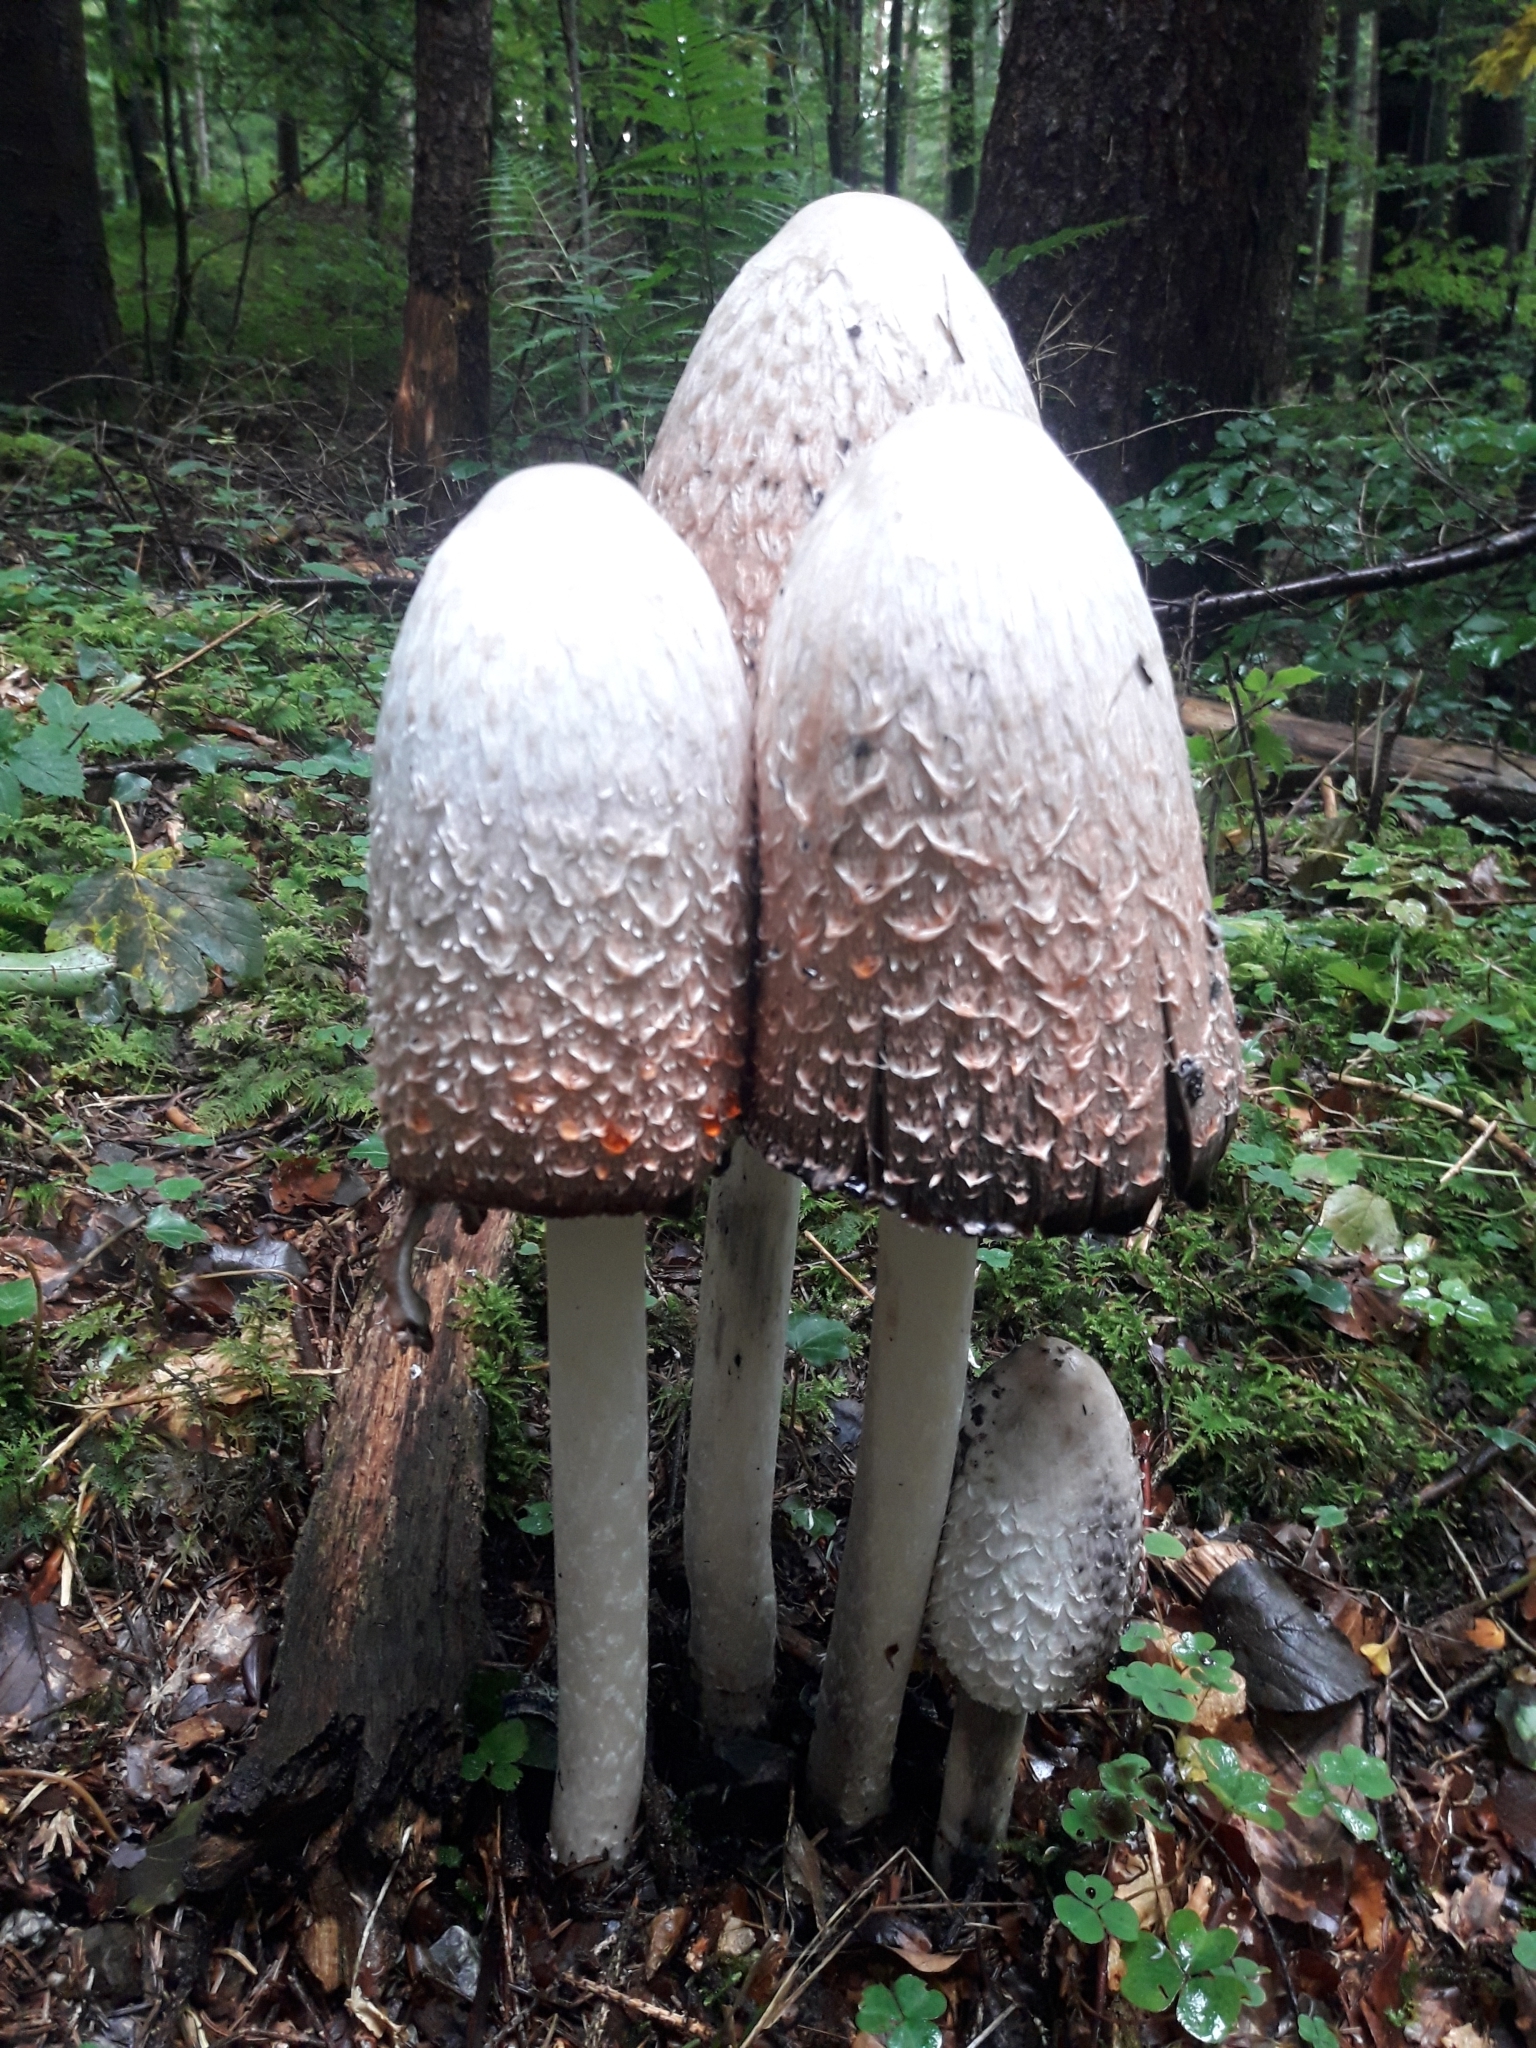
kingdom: Fungi
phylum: Basidiomycota
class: Agaricomycetes
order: Agaricales
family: Agaricaceae
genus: Coprinus
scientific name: Coprinus comatus
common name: Lawyer's wig
